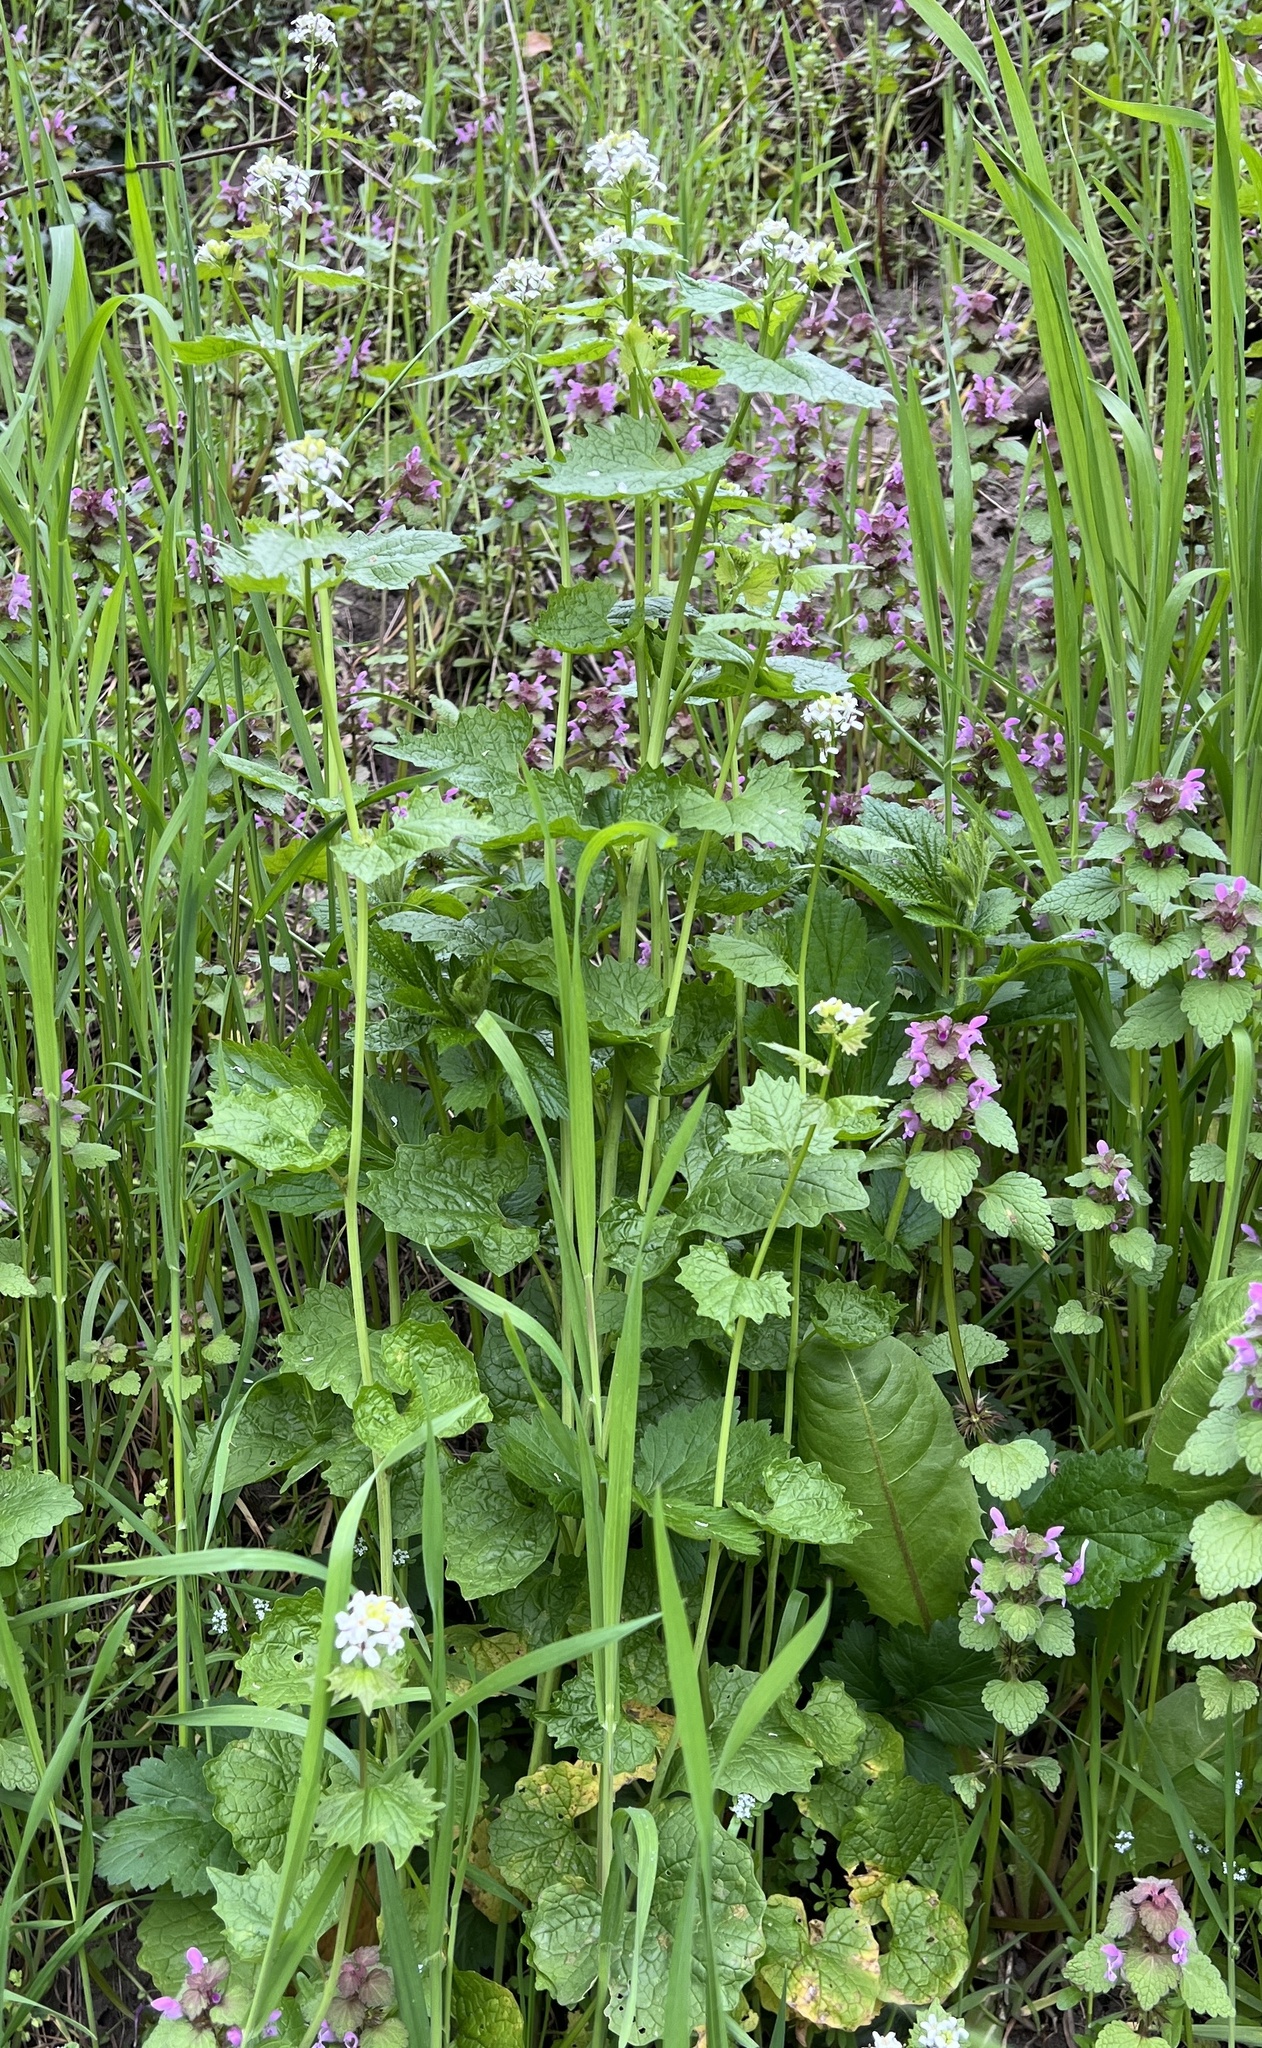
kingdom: Plantae
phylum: Tracheophyta
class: Magnoliopsida
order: Brassicales
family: Brassicaceae
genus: Alliaria
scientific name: Alliaria petiolata
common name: Garlic mustard
